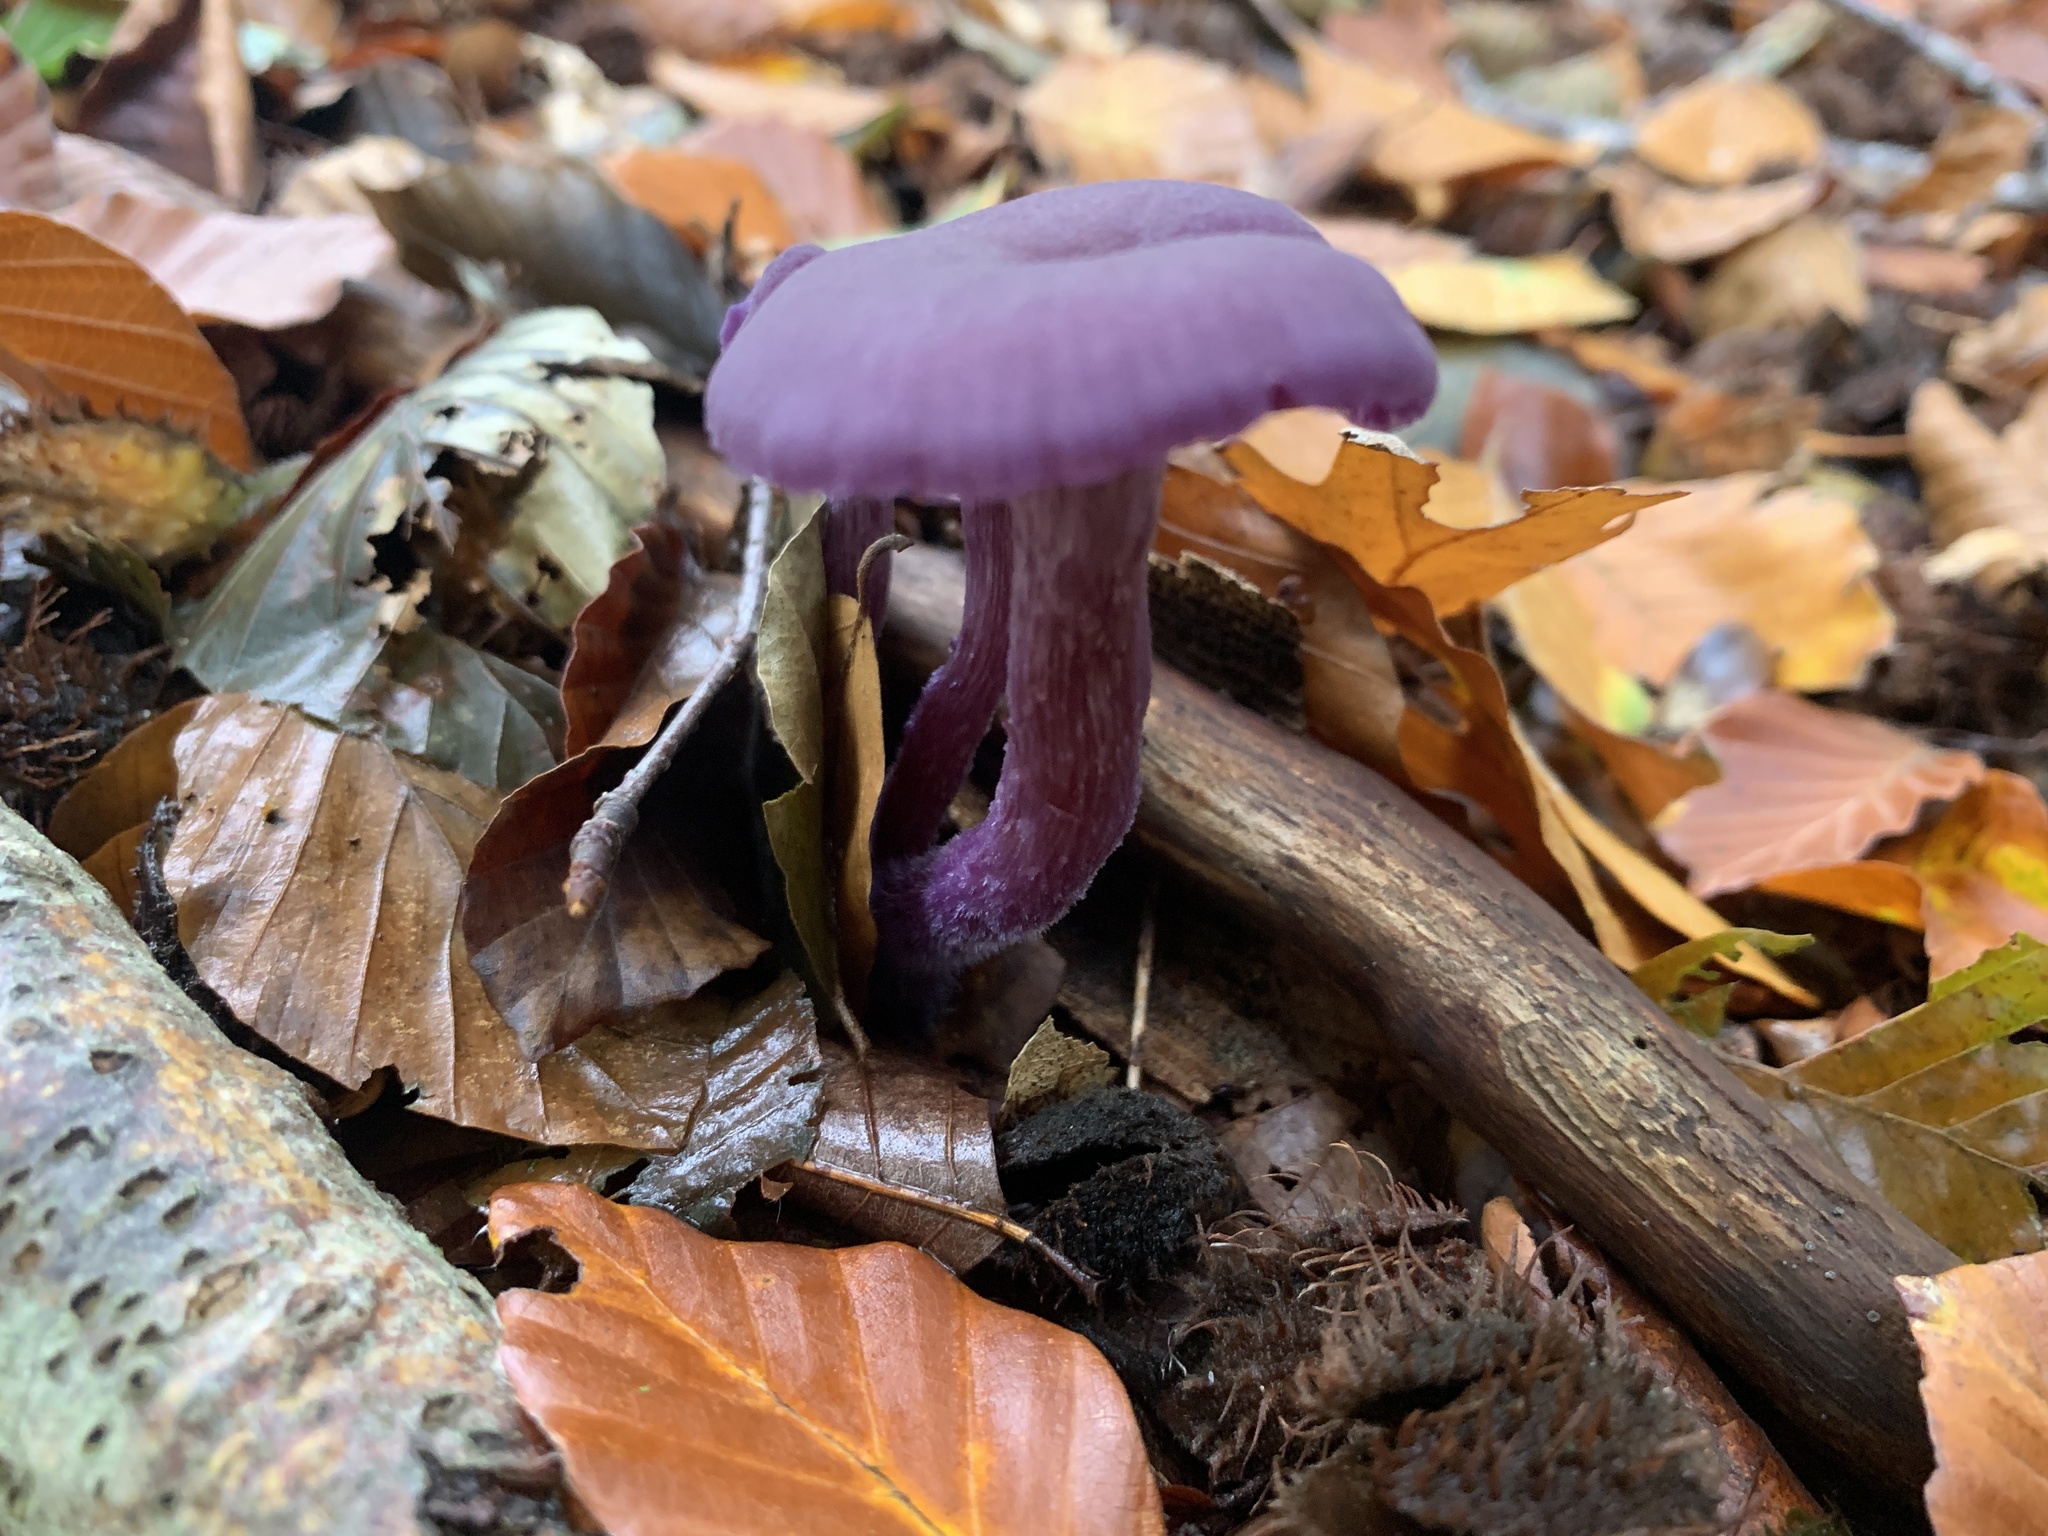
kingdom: Fungi
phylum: Basidiomycota
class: Agaricomycetes
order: Agaricales
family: Hydnangiaceae
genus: Laccaria
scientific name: Laccaria amethystina
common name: Amethyst deceiver
